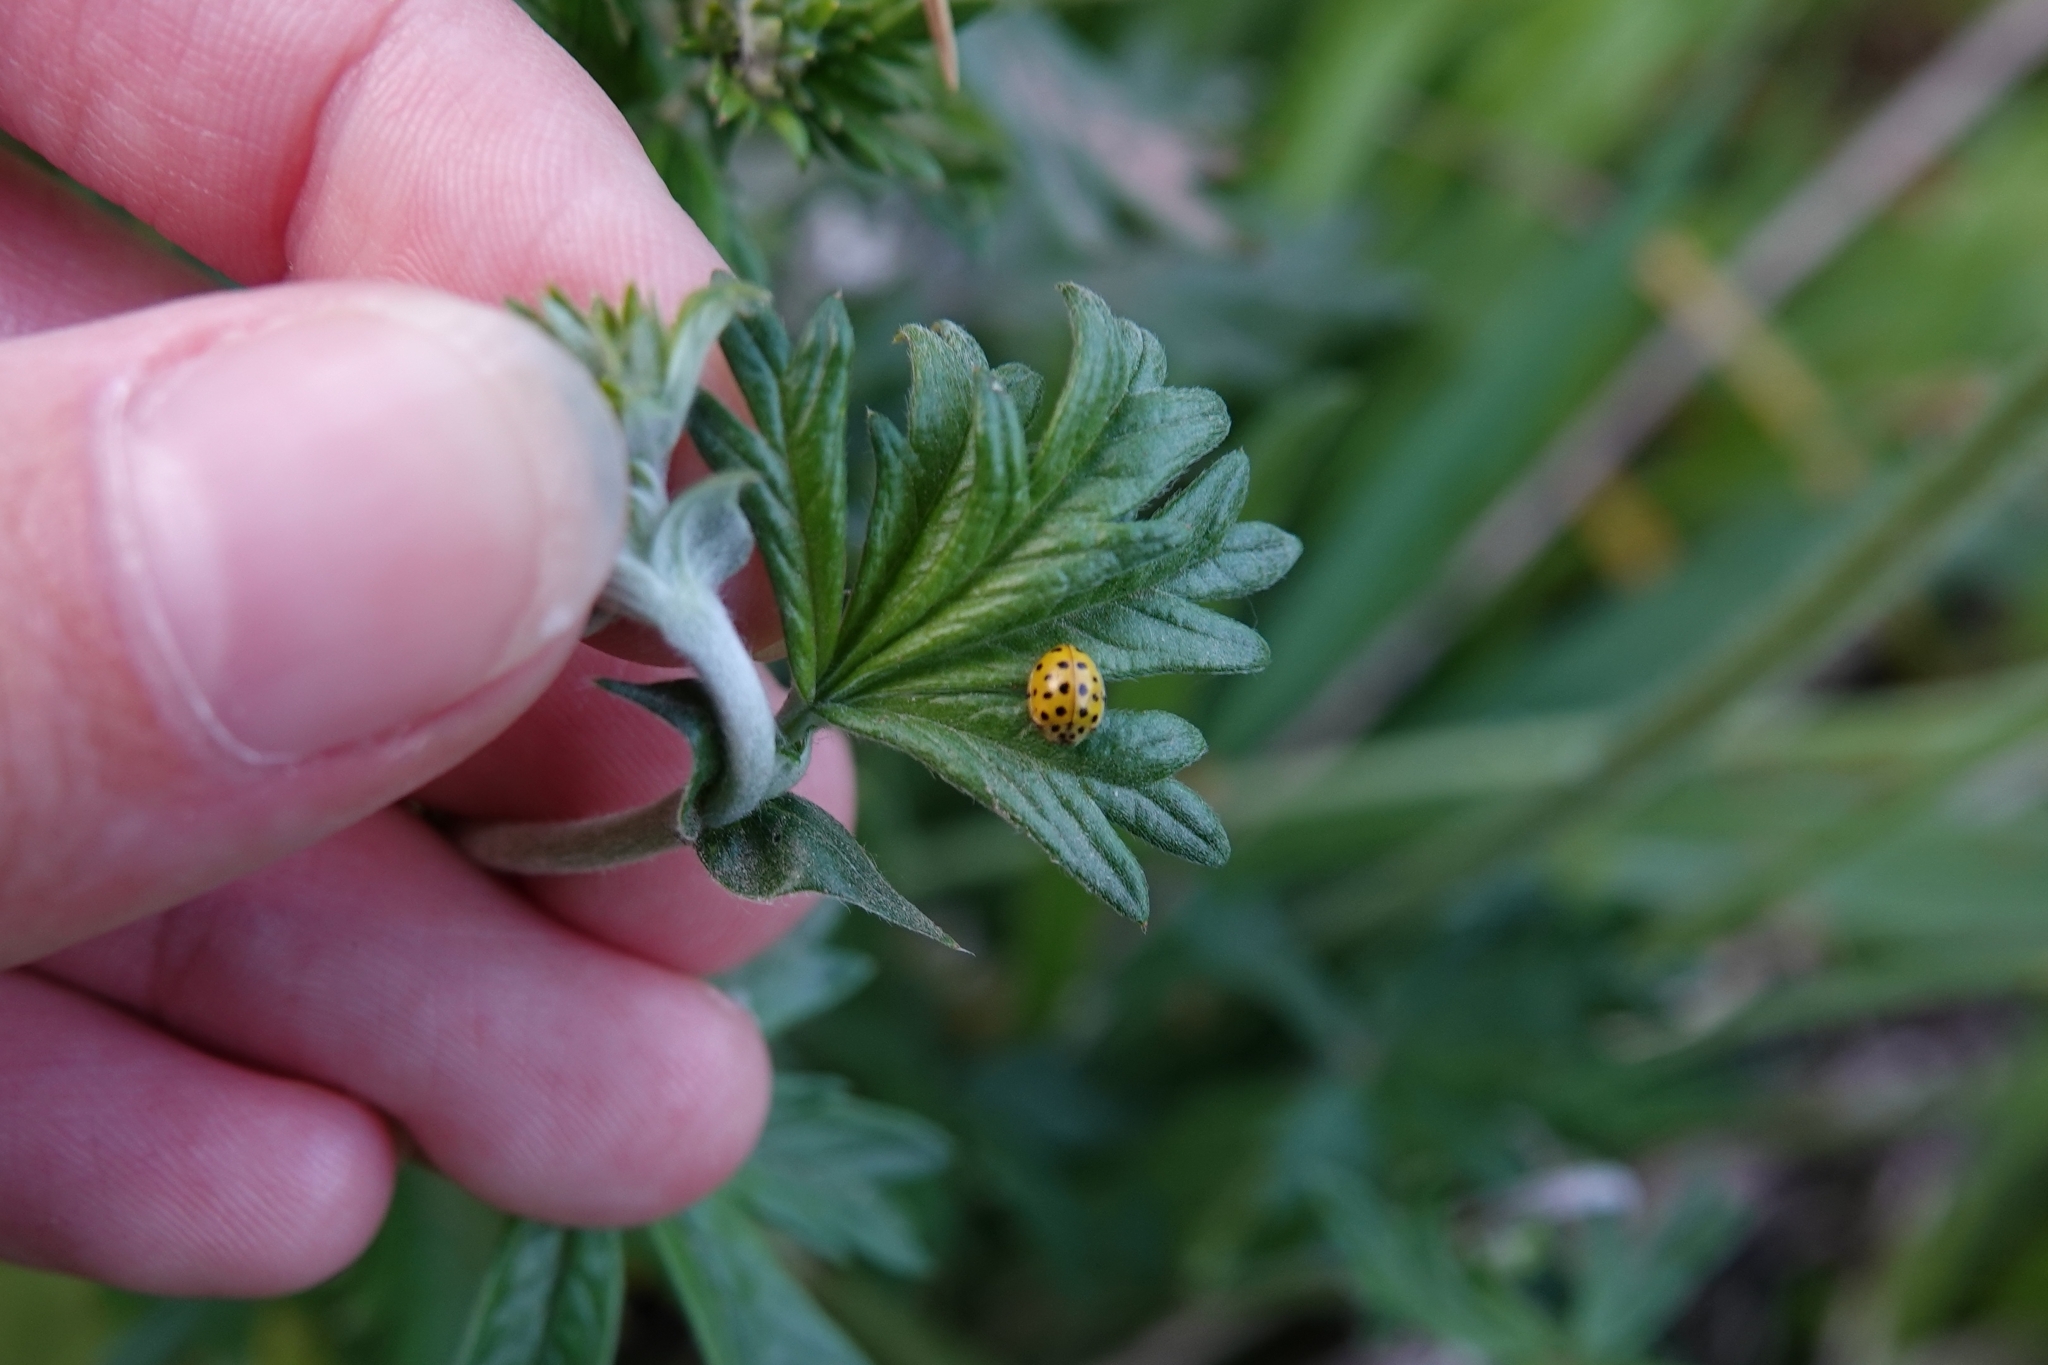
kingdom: Animalia
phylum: Arthropoda
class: Insecta
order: Coleoptera
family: Coccinellidae
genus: Psyllobora
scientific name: Psyllobora vigintiduopunctata
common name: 22-spot ladybird
